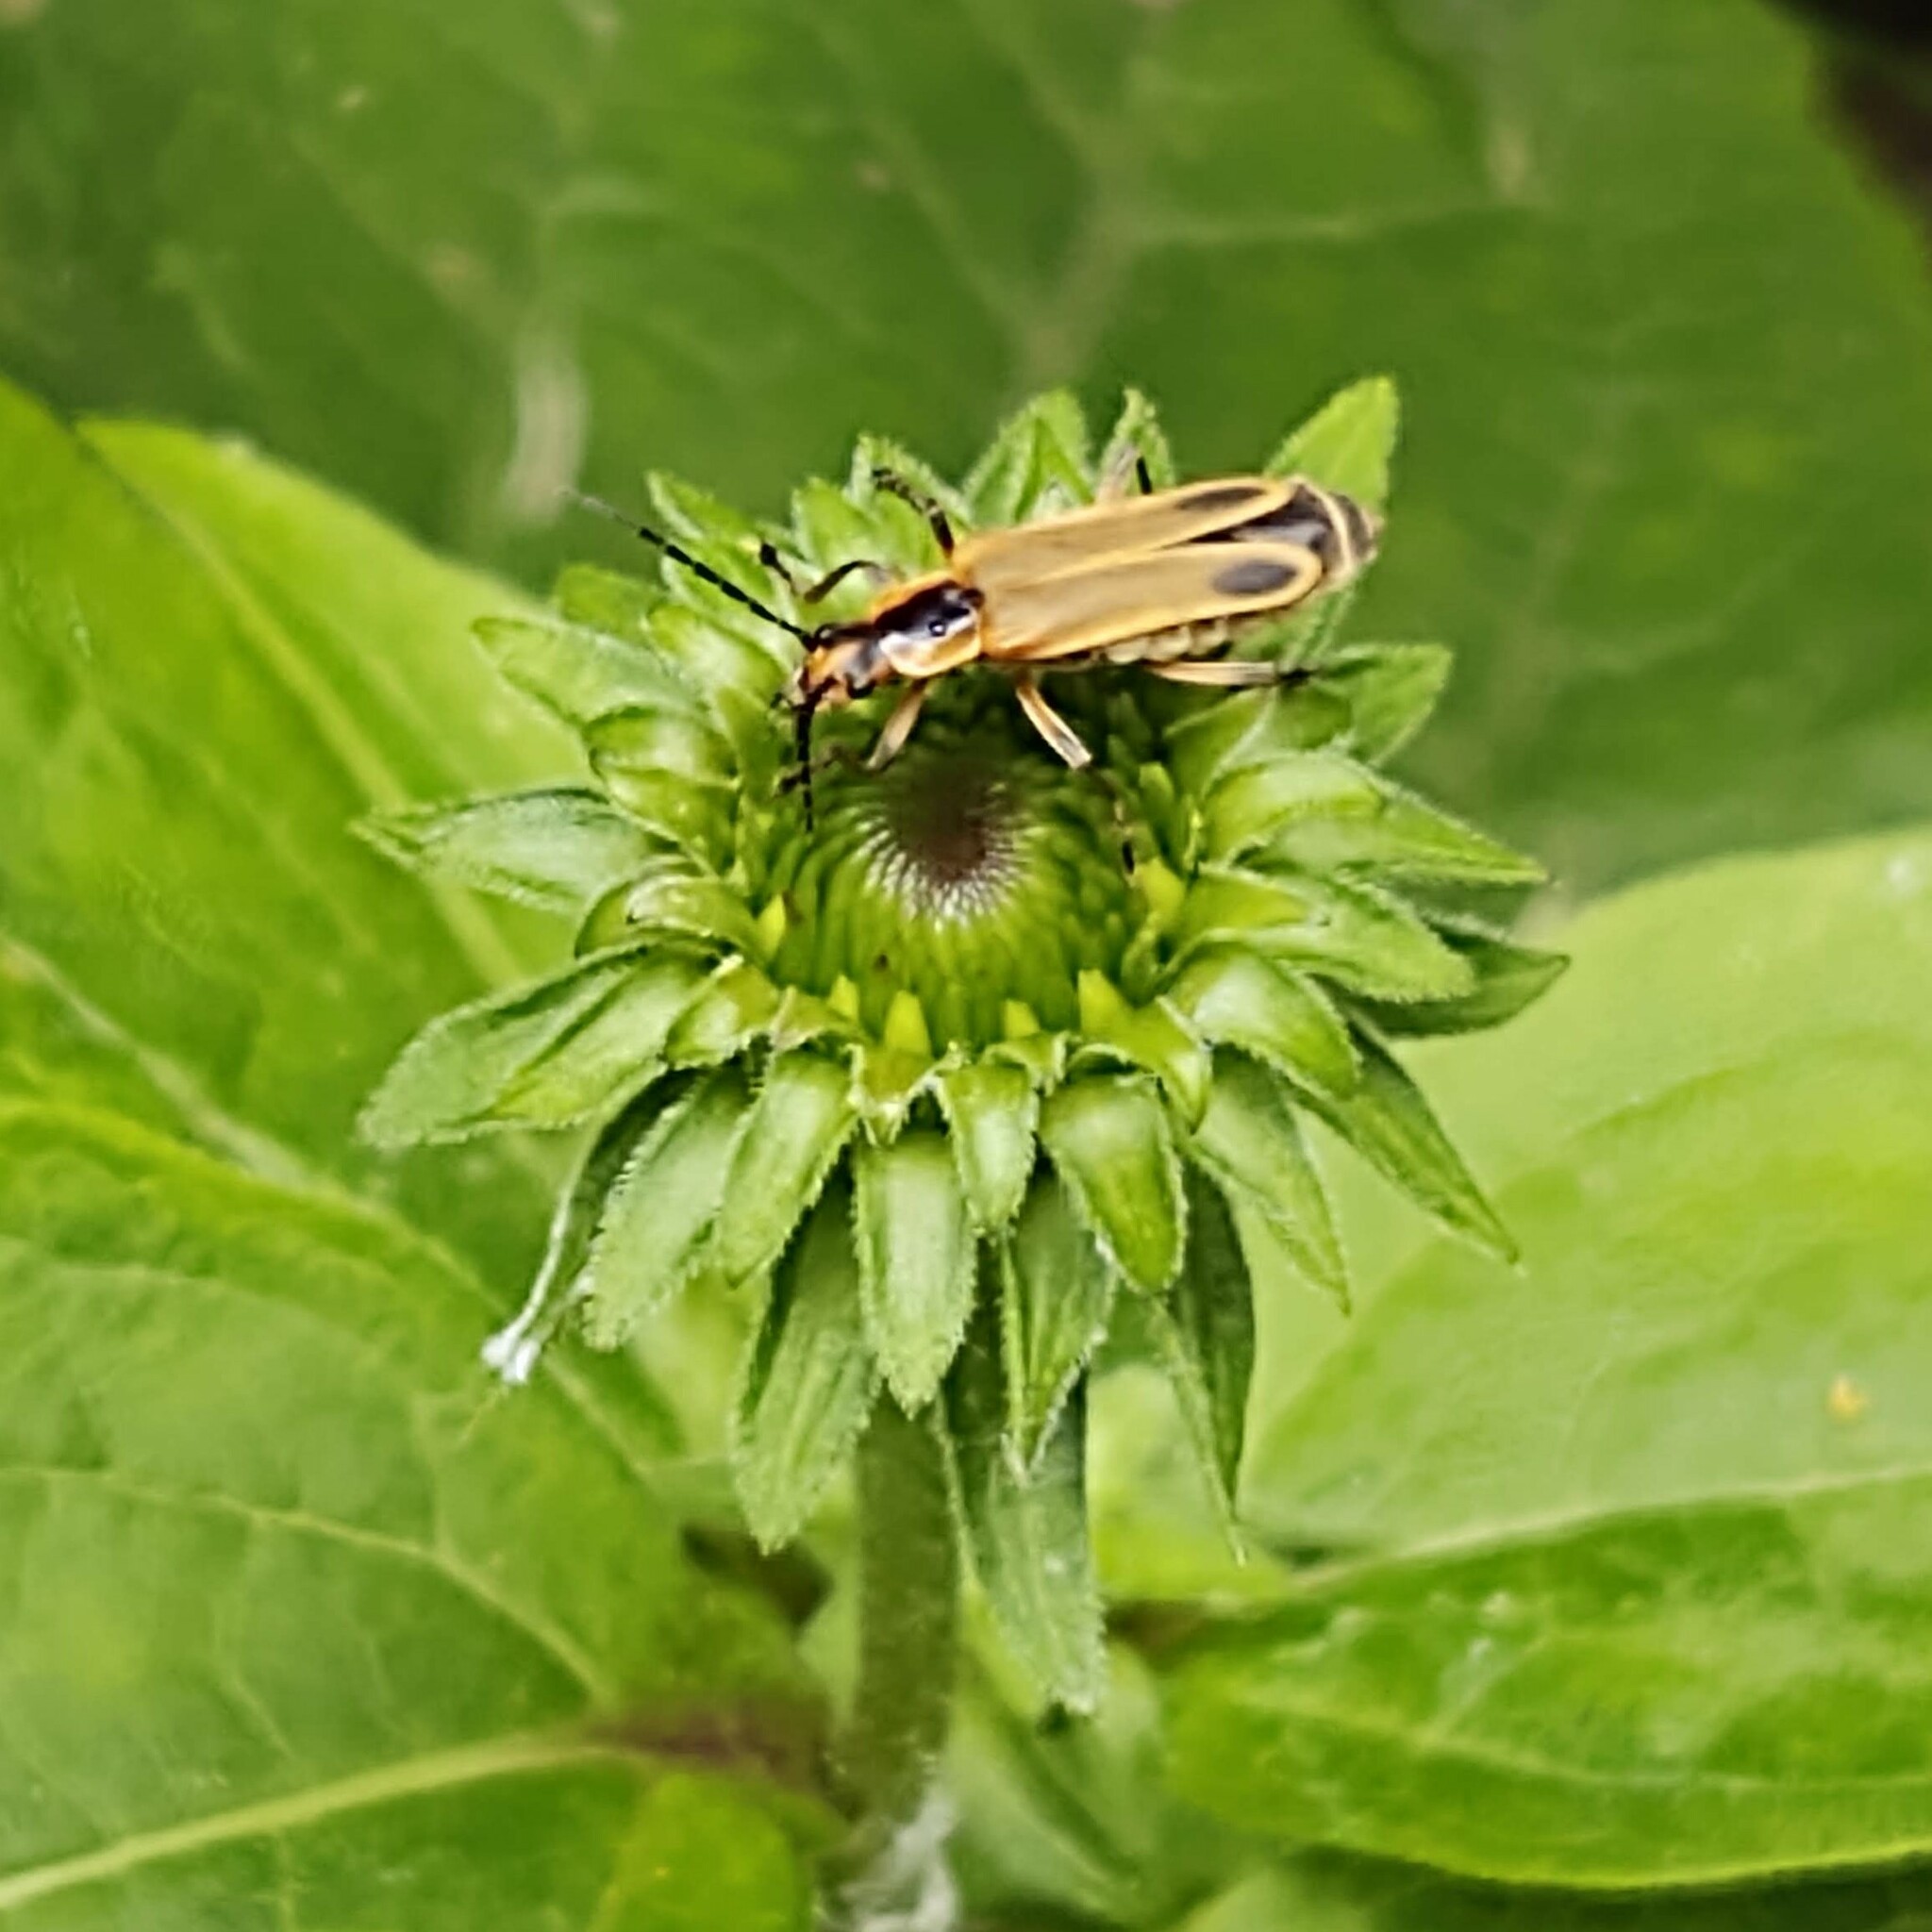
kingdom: Animalia
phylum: Arthropoda
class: Insecta
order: Coleoptera
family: Cantharidae
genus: Chauliognathus
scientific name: Chauliognathus marginatus
